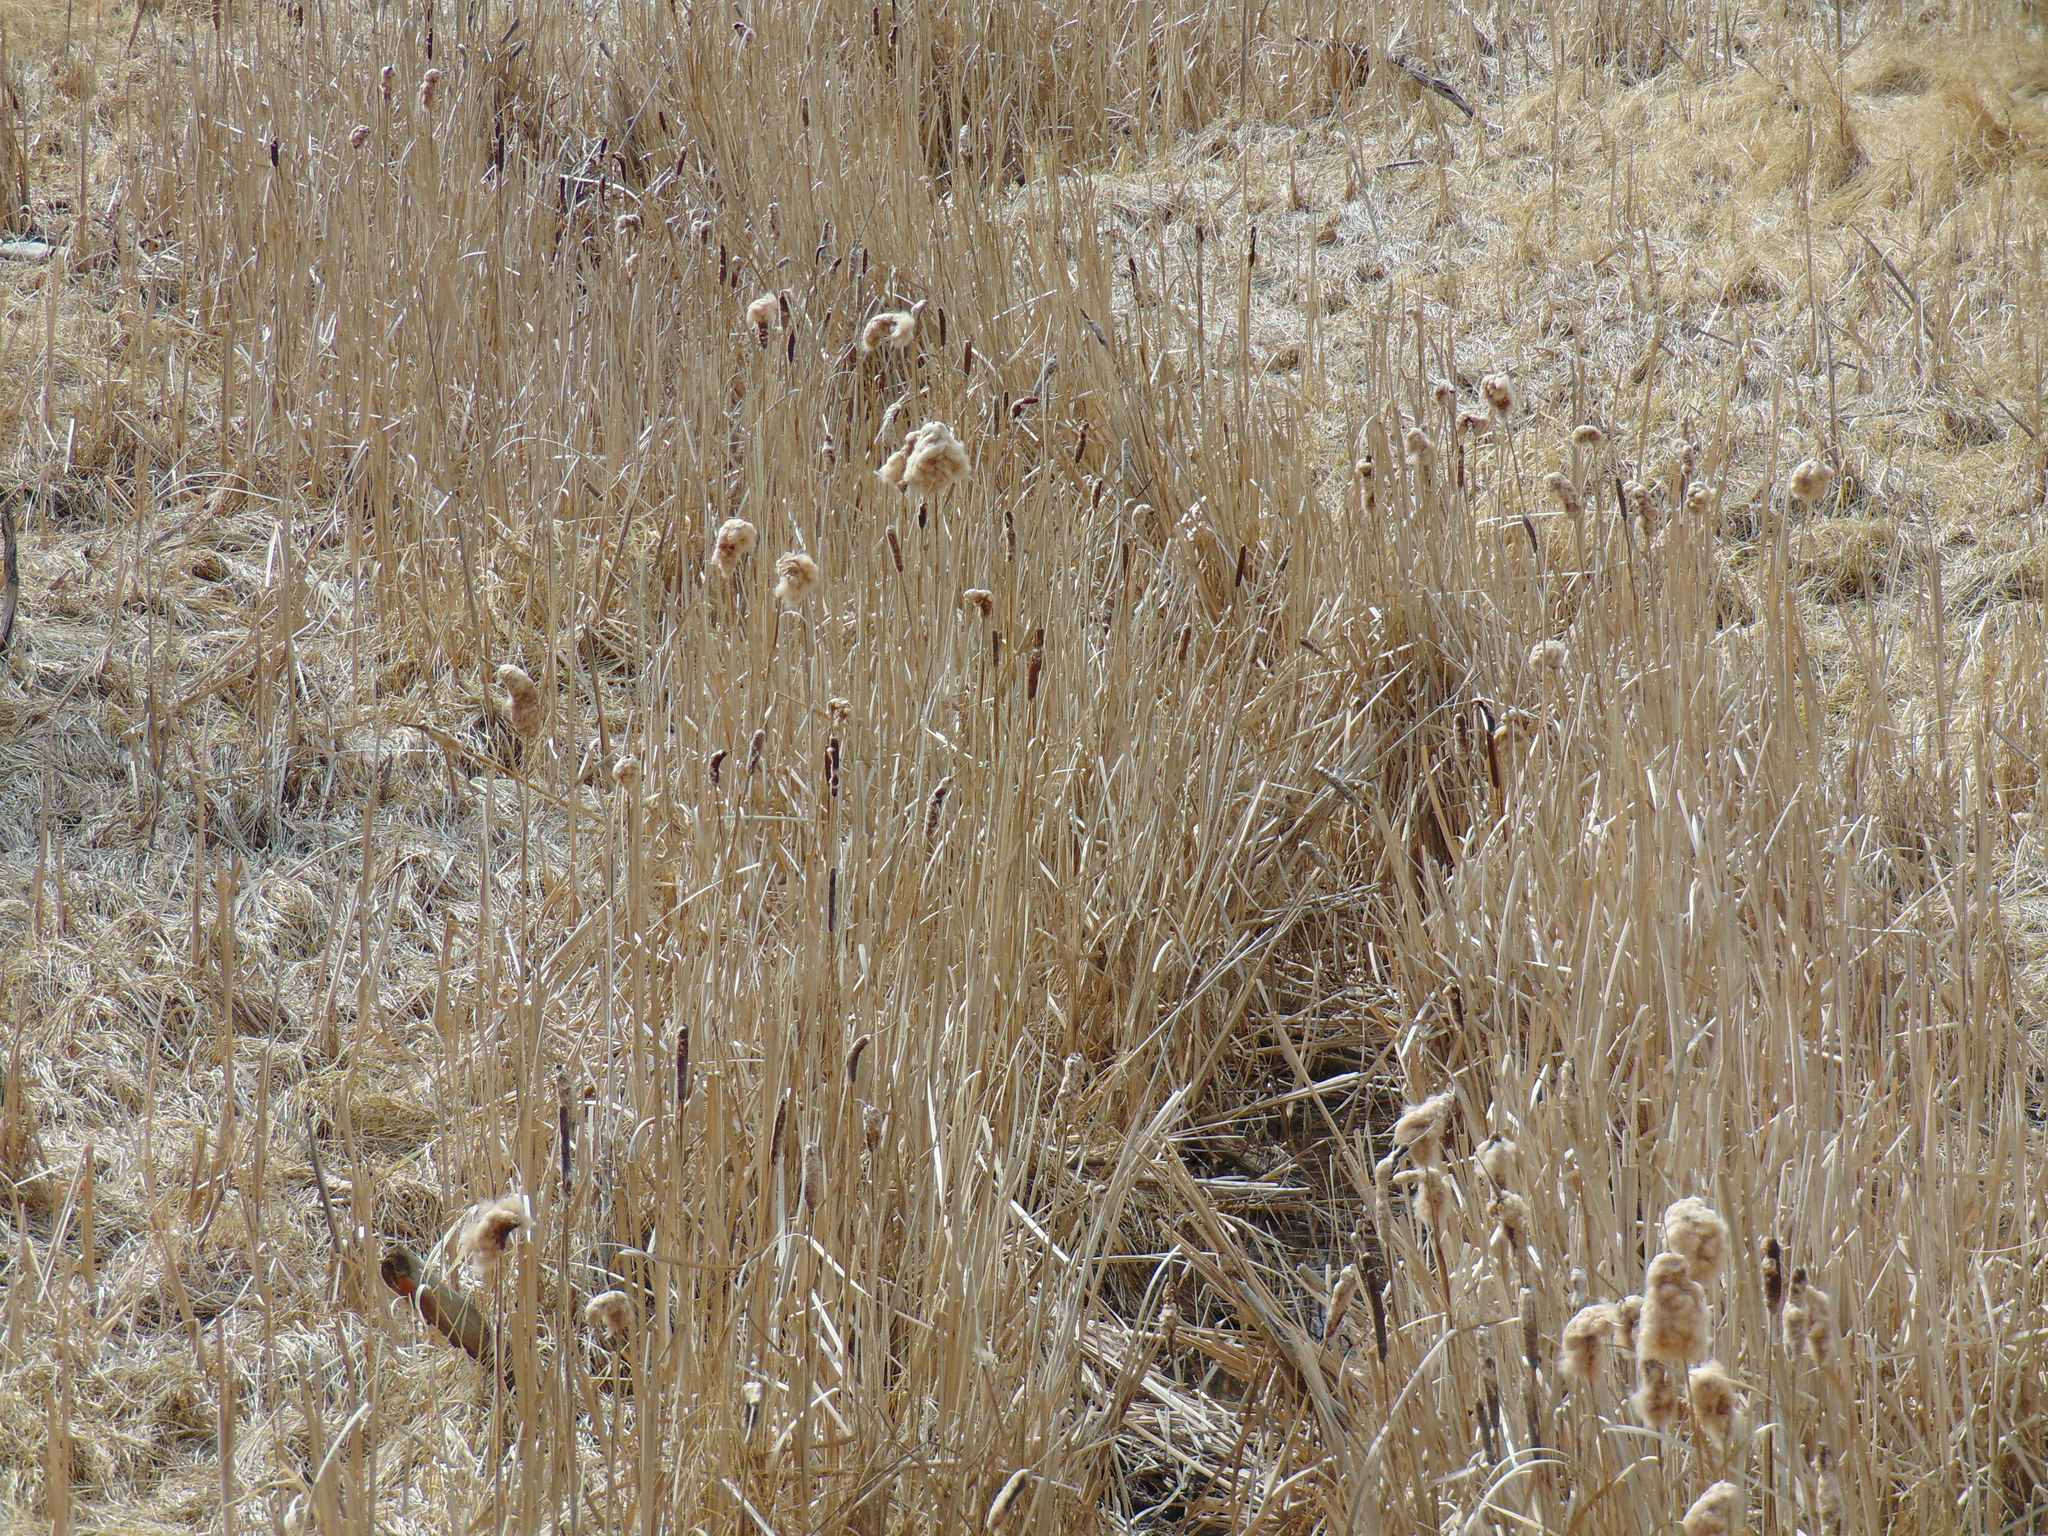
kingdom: Plantae
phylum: Tracheophyta
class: Liliopsida
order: Poales
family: Typhaceae
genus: Typha
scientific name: Typha latifolia
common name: Broadleaf cattail
